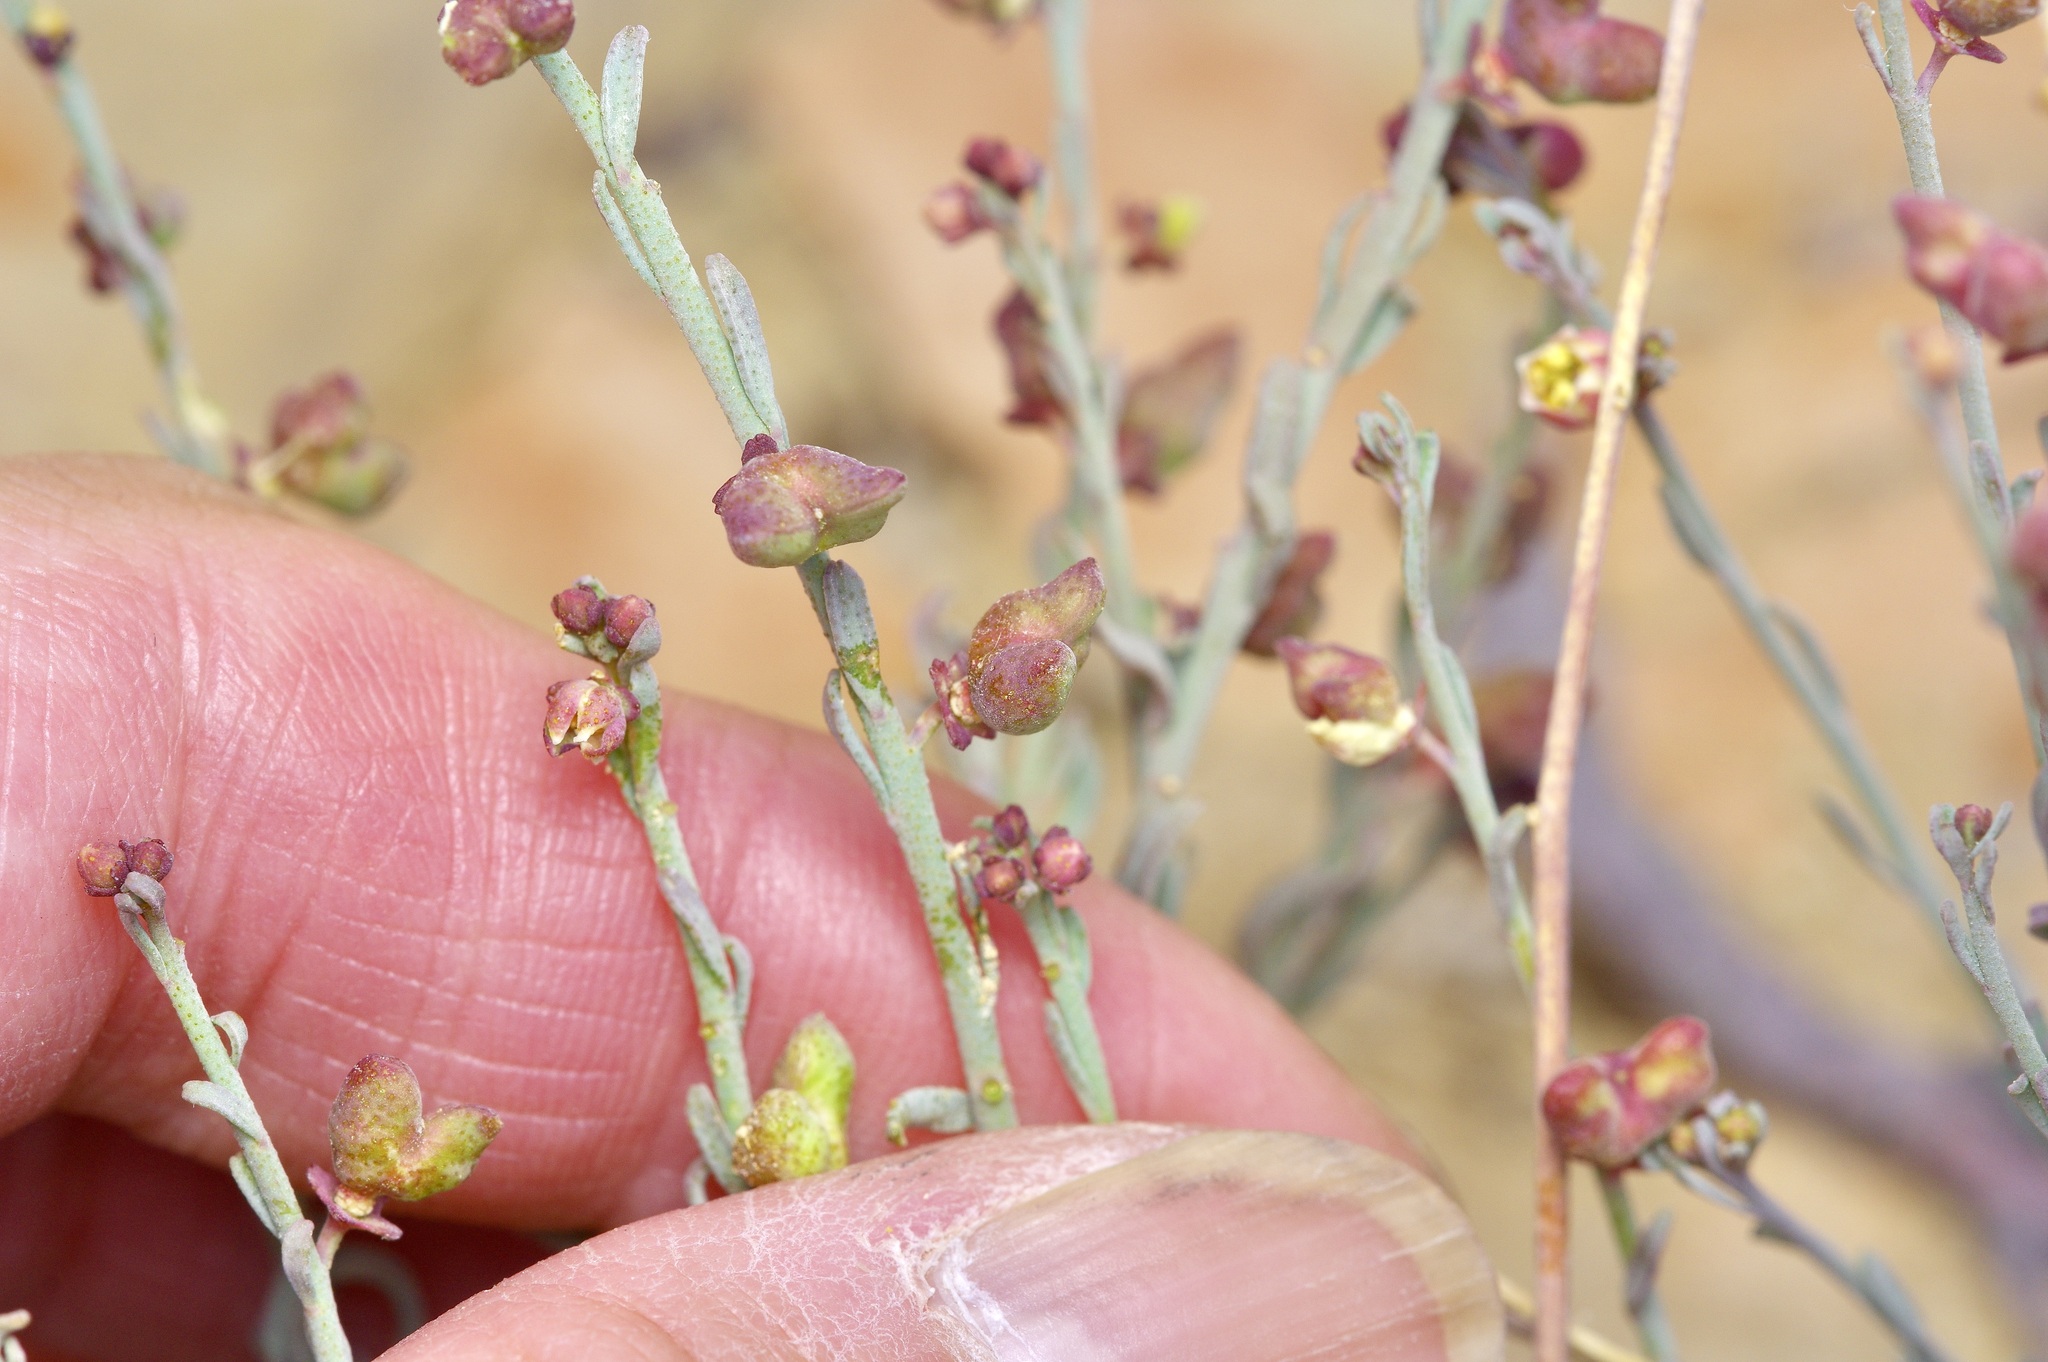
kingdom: Plantae
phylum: Tracheophyta
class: Magnoliopsida
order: Sapindales
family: Rutaceae
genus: Thamnosma
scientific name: Thamnosma texana
